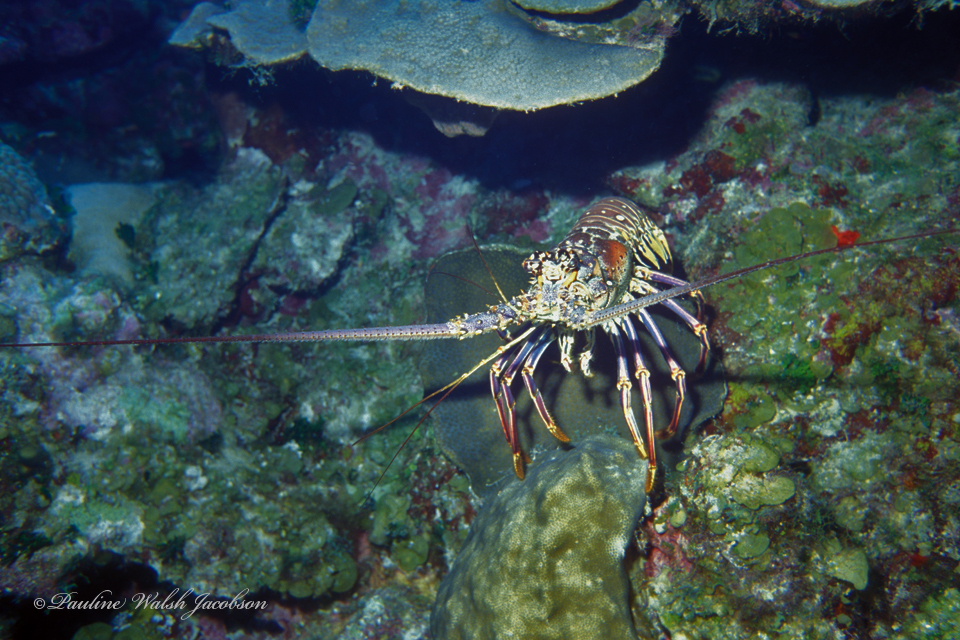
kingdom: Animalia
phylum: Arthropoda
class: Malacostraca
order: Decapoda
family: Palinuridae
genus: Panulirus
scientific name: Panulirus argus
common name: Caribbean spiny lobster
